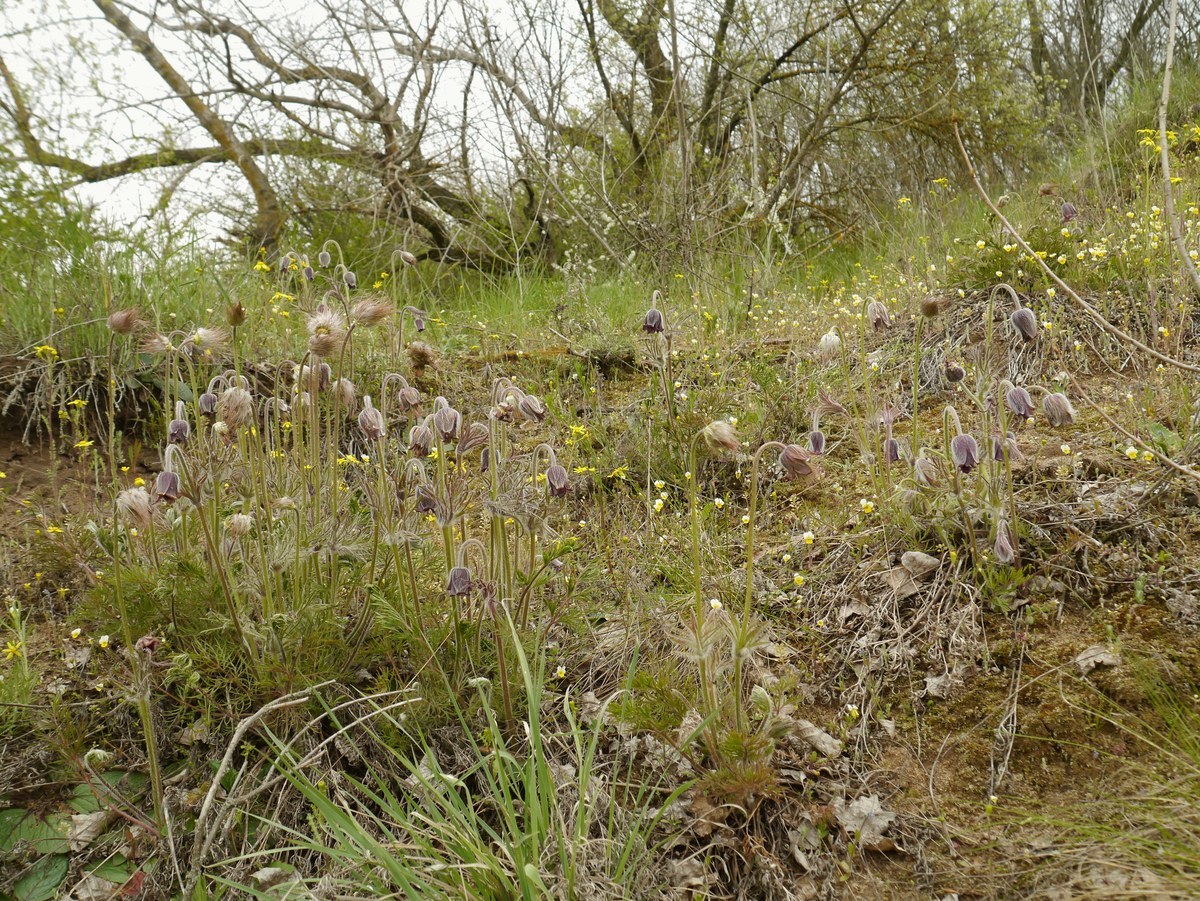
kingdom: Plantae
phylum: Tracheophyta
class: Magnoliopsida
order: Ranunculales
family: Ranunculaceae
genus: Pulsatilla
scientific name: Pulsatilla pratensis
